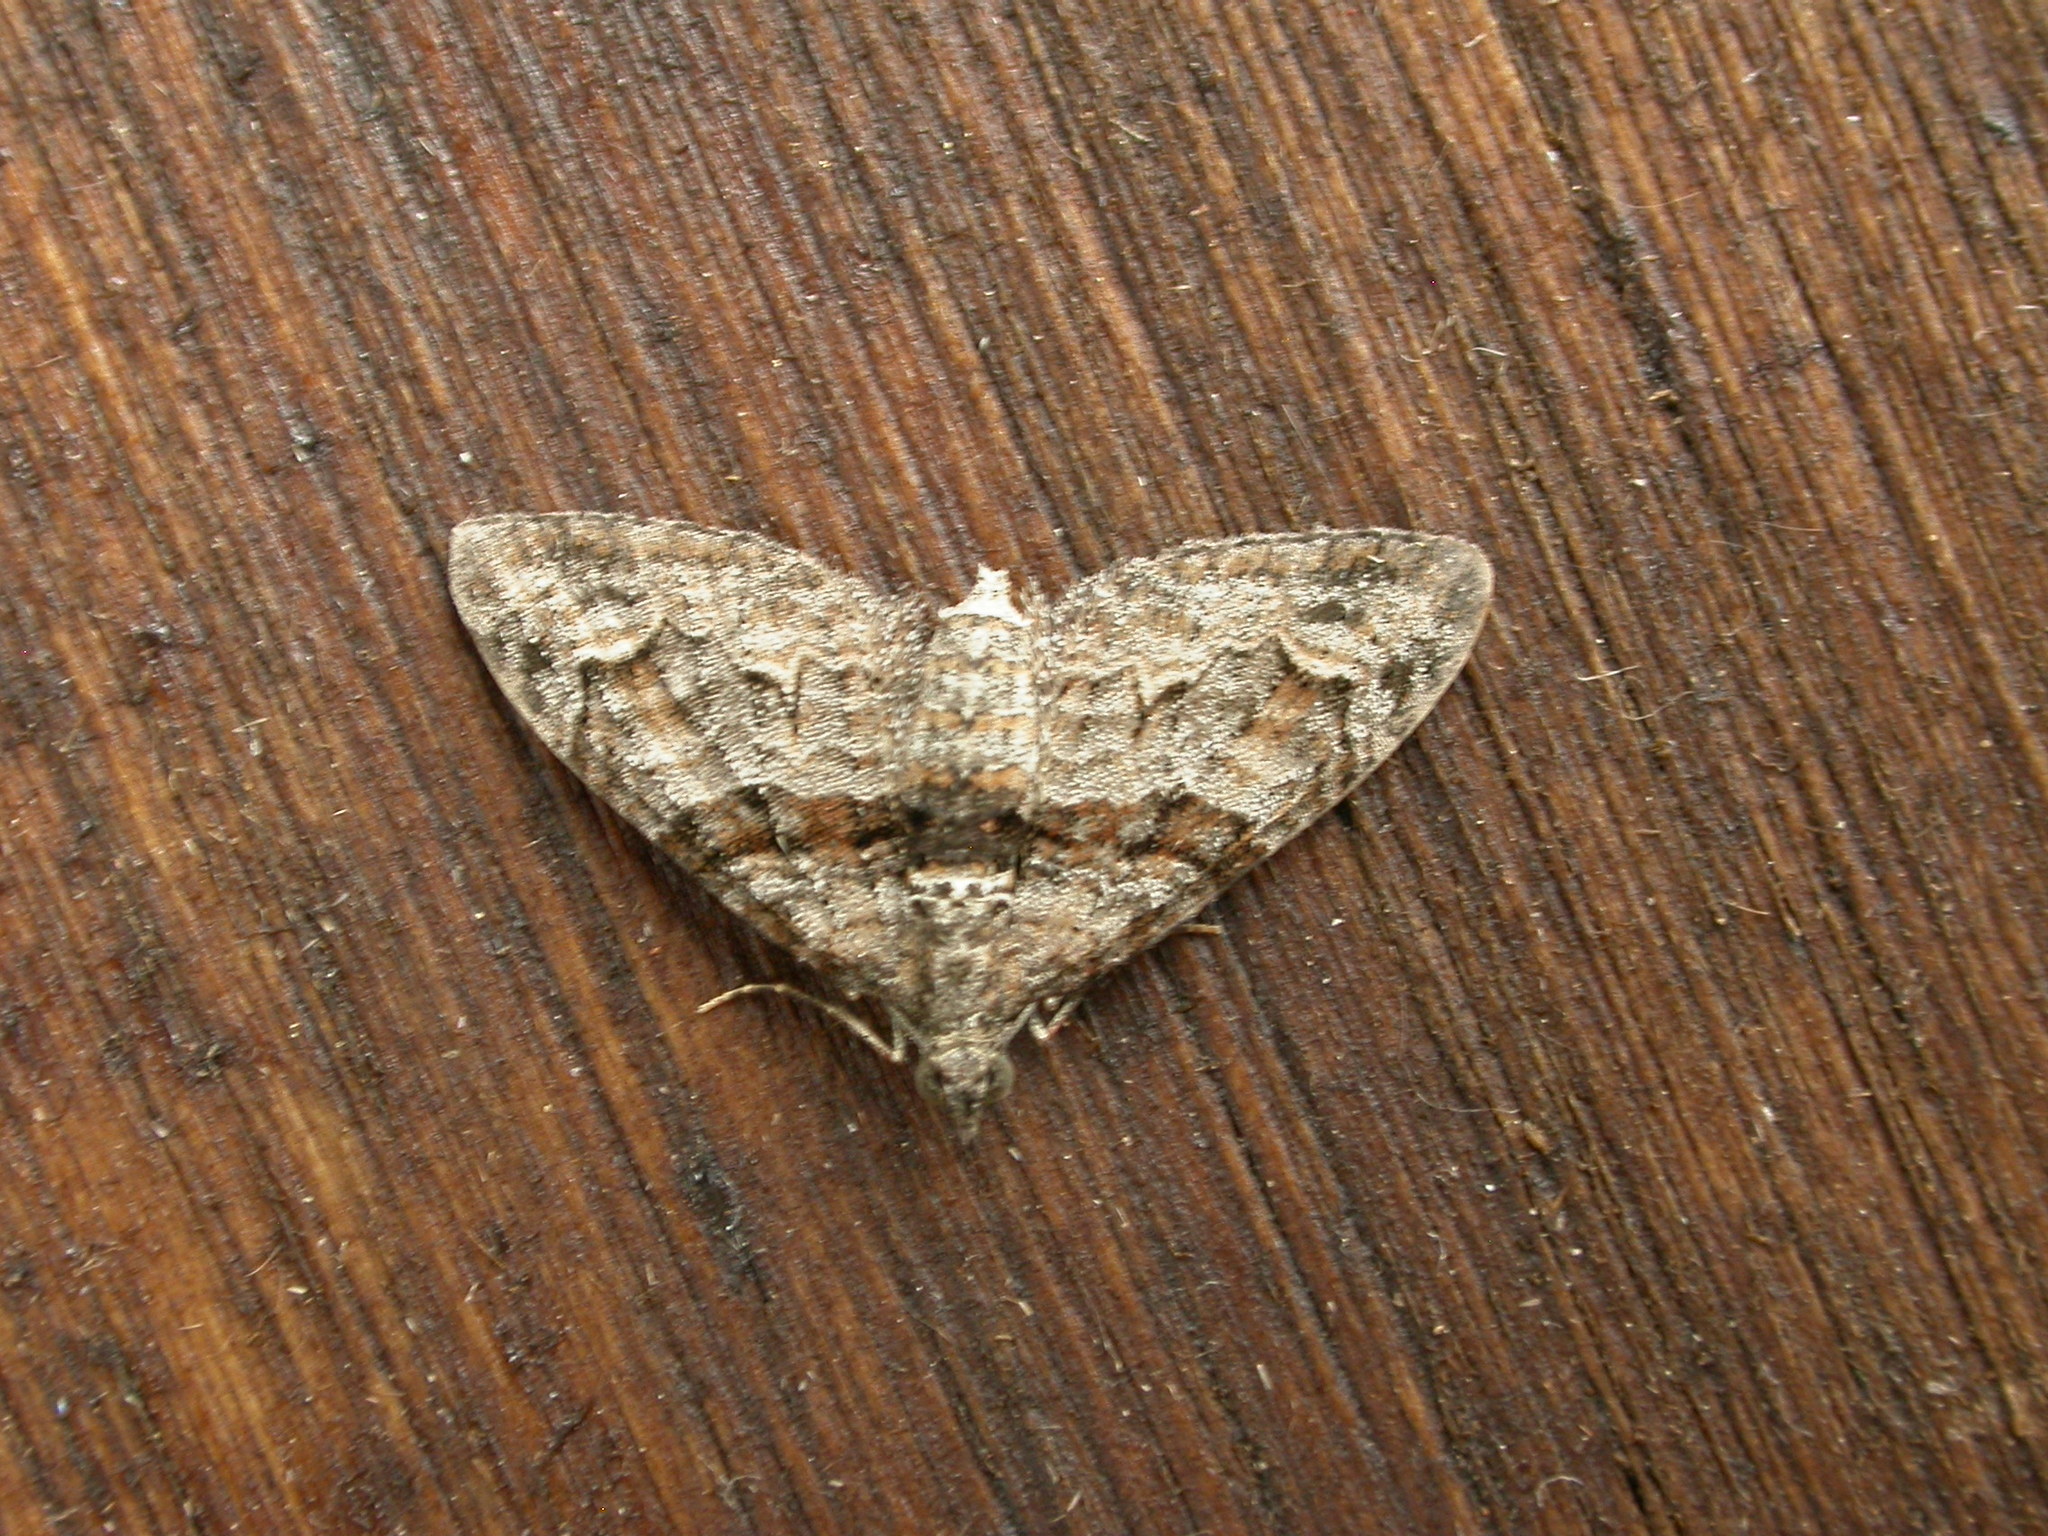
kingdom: Animalia
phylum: Arthropoda
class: Insecta
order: Lepidoptera
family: Geometridae
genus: Phrissogonus
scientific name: Phrissogonus laticostata
